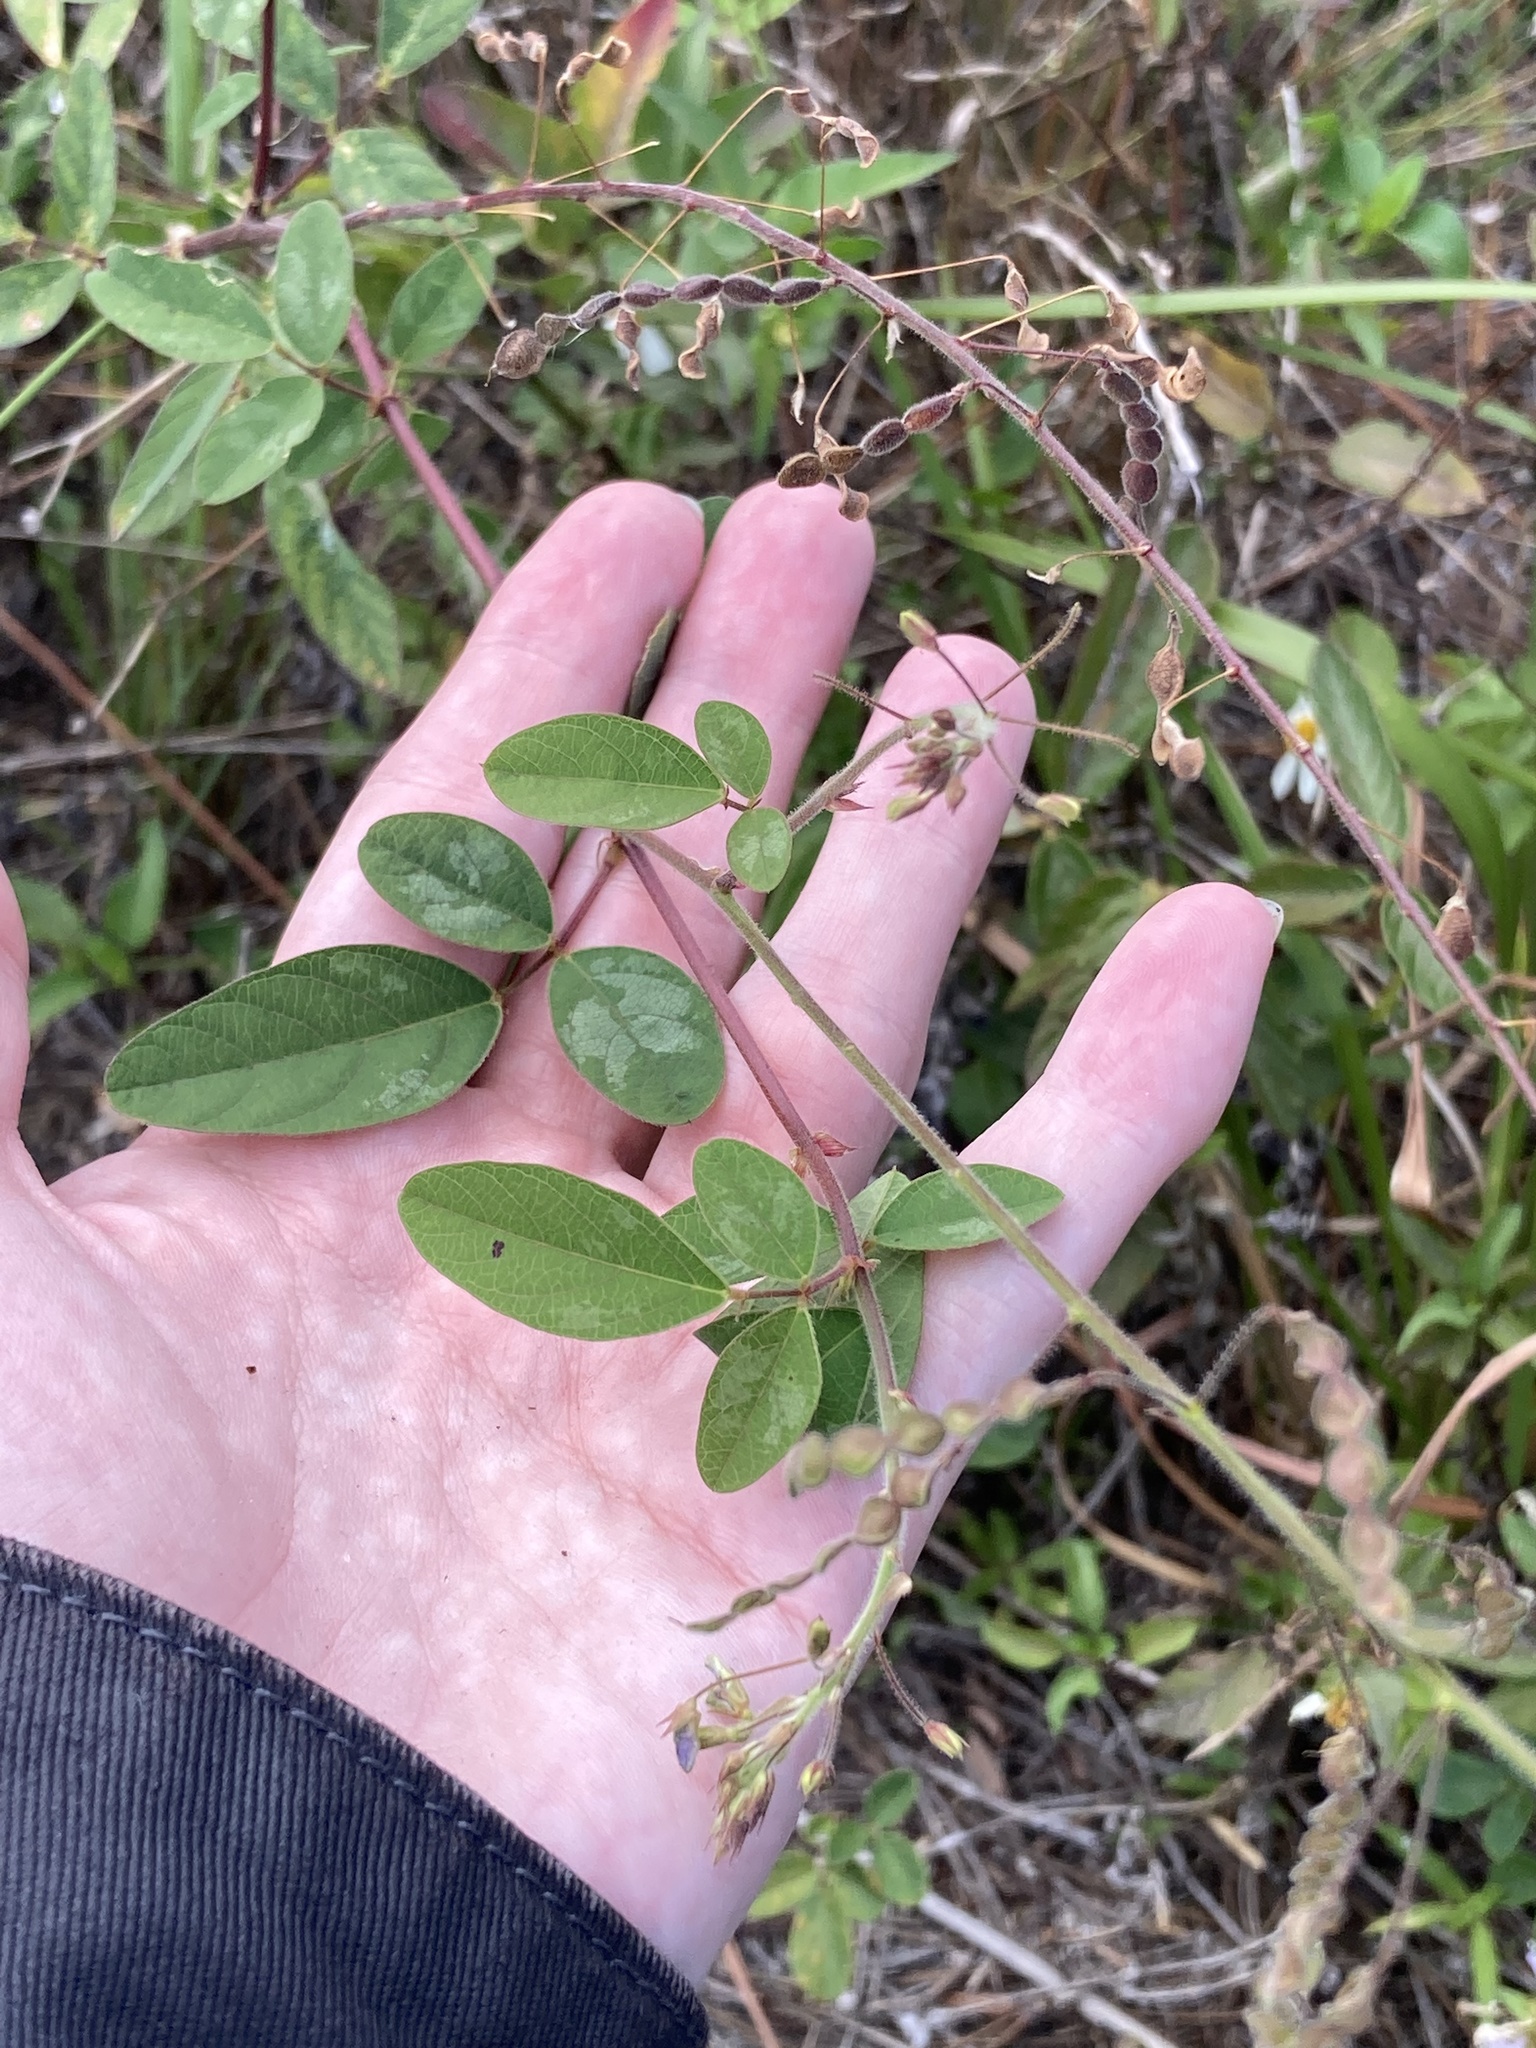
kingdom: Plantae
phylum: Tracheophyta
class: Magnoliopsida
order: Fabales
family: Fabaceae
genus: Desmodium
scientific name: Desmodium tortuosum
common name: Dixie ticktrefoil
